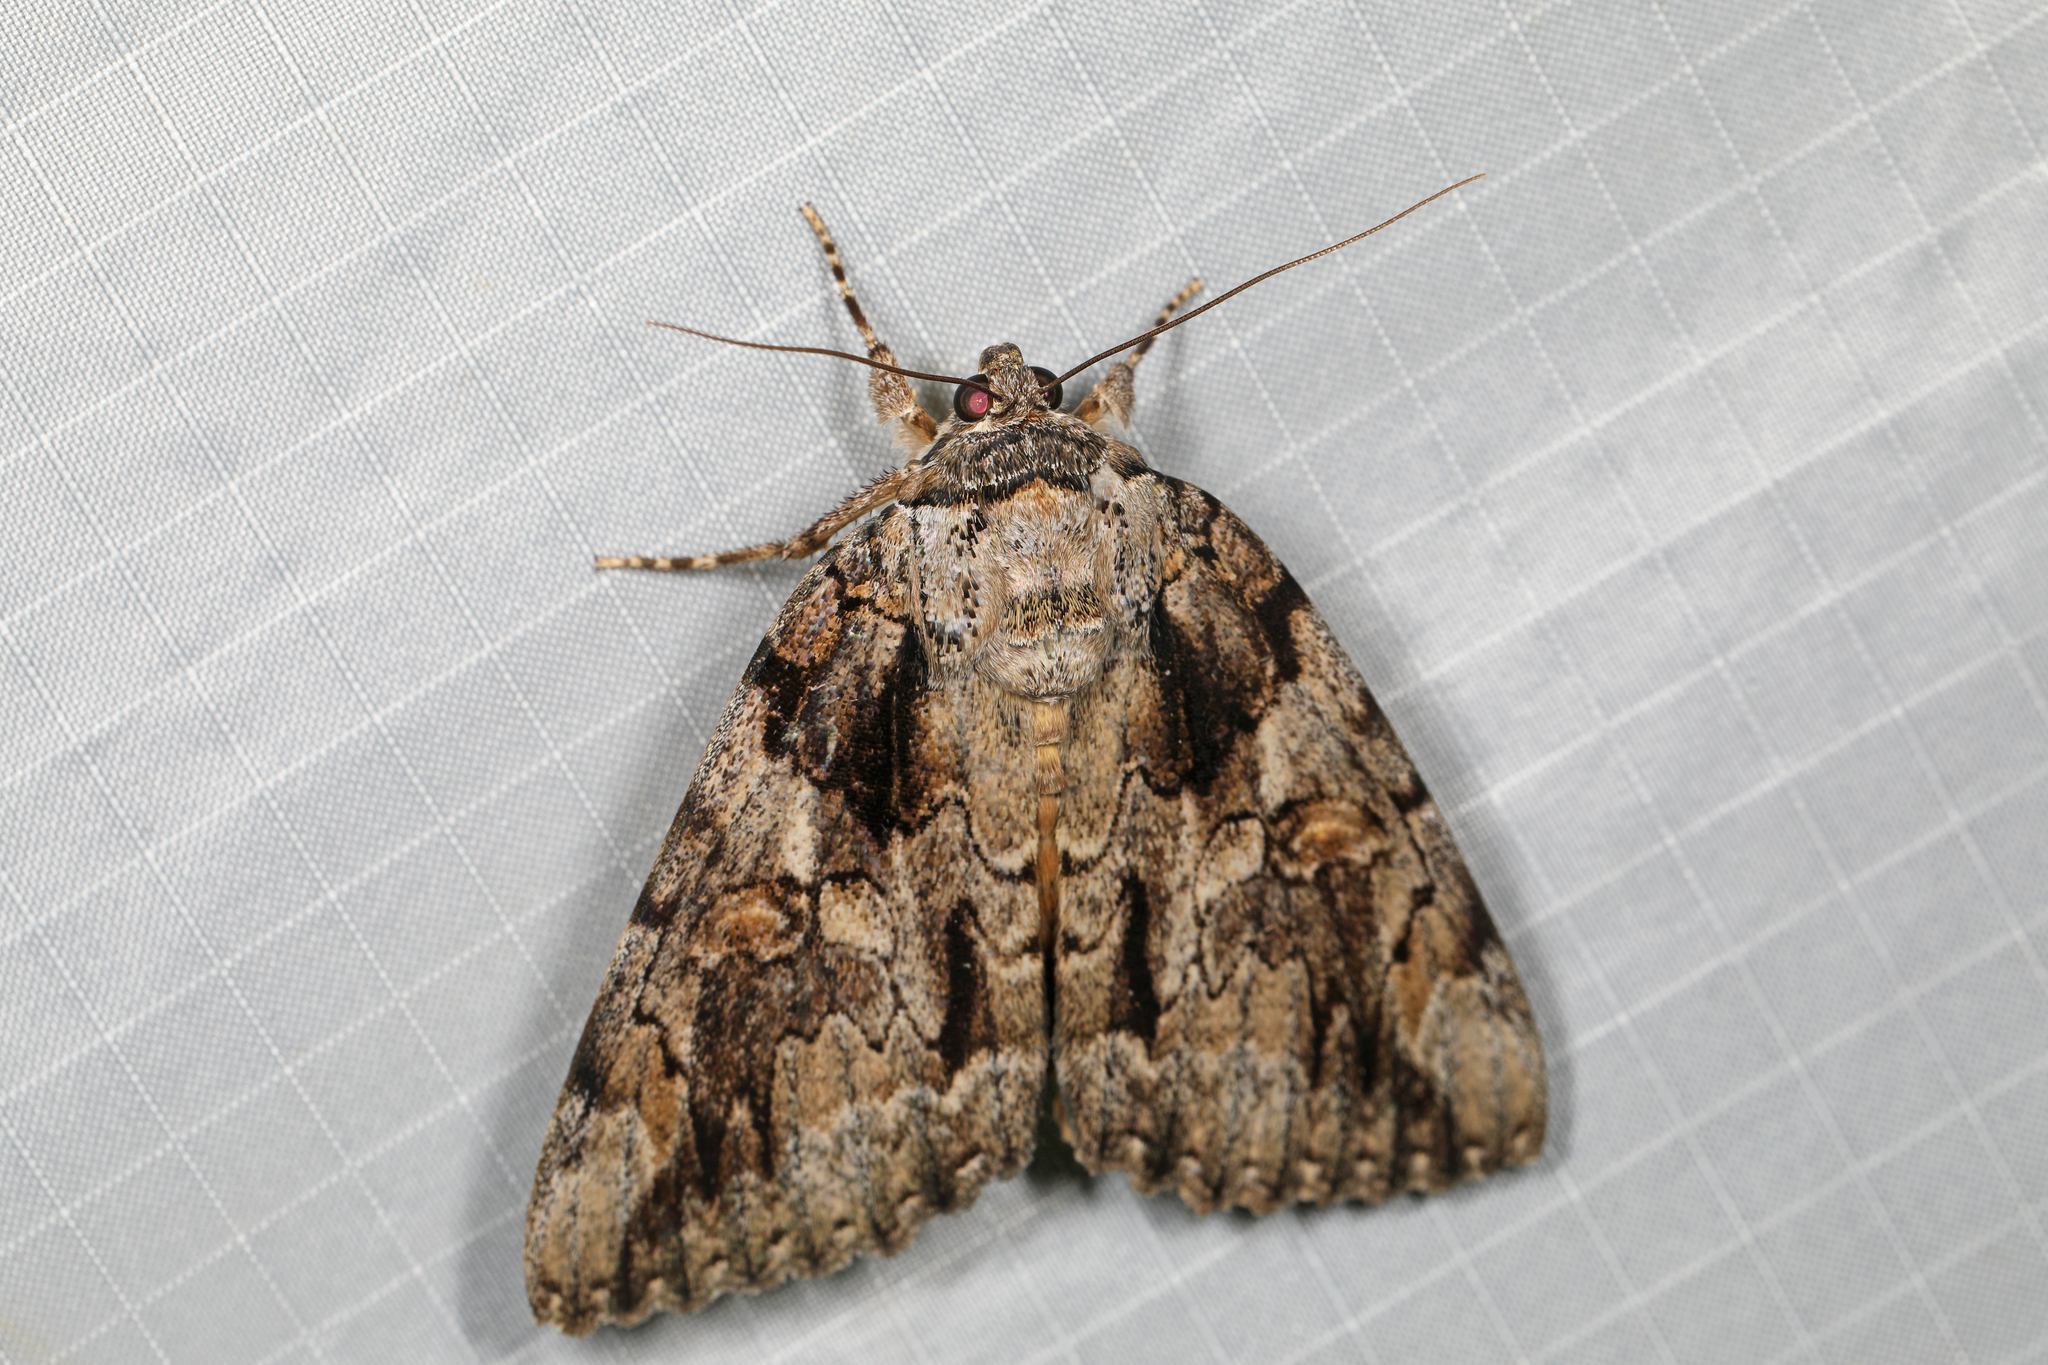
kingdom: Animalia
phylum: Arthropoda
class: Insecta
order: Lepidoptera
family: Erebidae
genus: Catocala
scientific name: Catocala neogama
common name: Bride underwing
